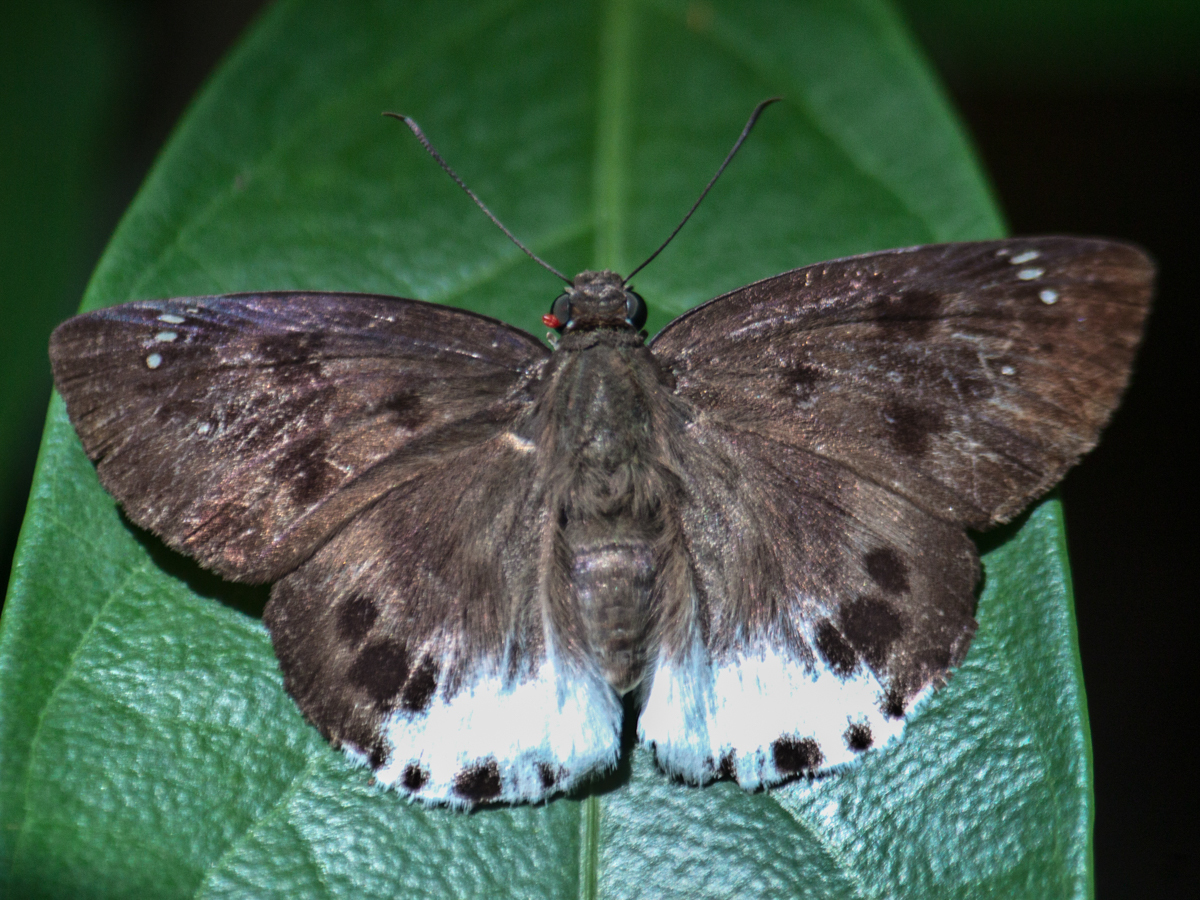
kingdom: Animalia
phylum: Arthropoda
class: Insecta
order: Lepidoptera
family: Hesperiidae
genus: Tagiades
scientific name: Tagiades parra
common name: Straight snow flat
